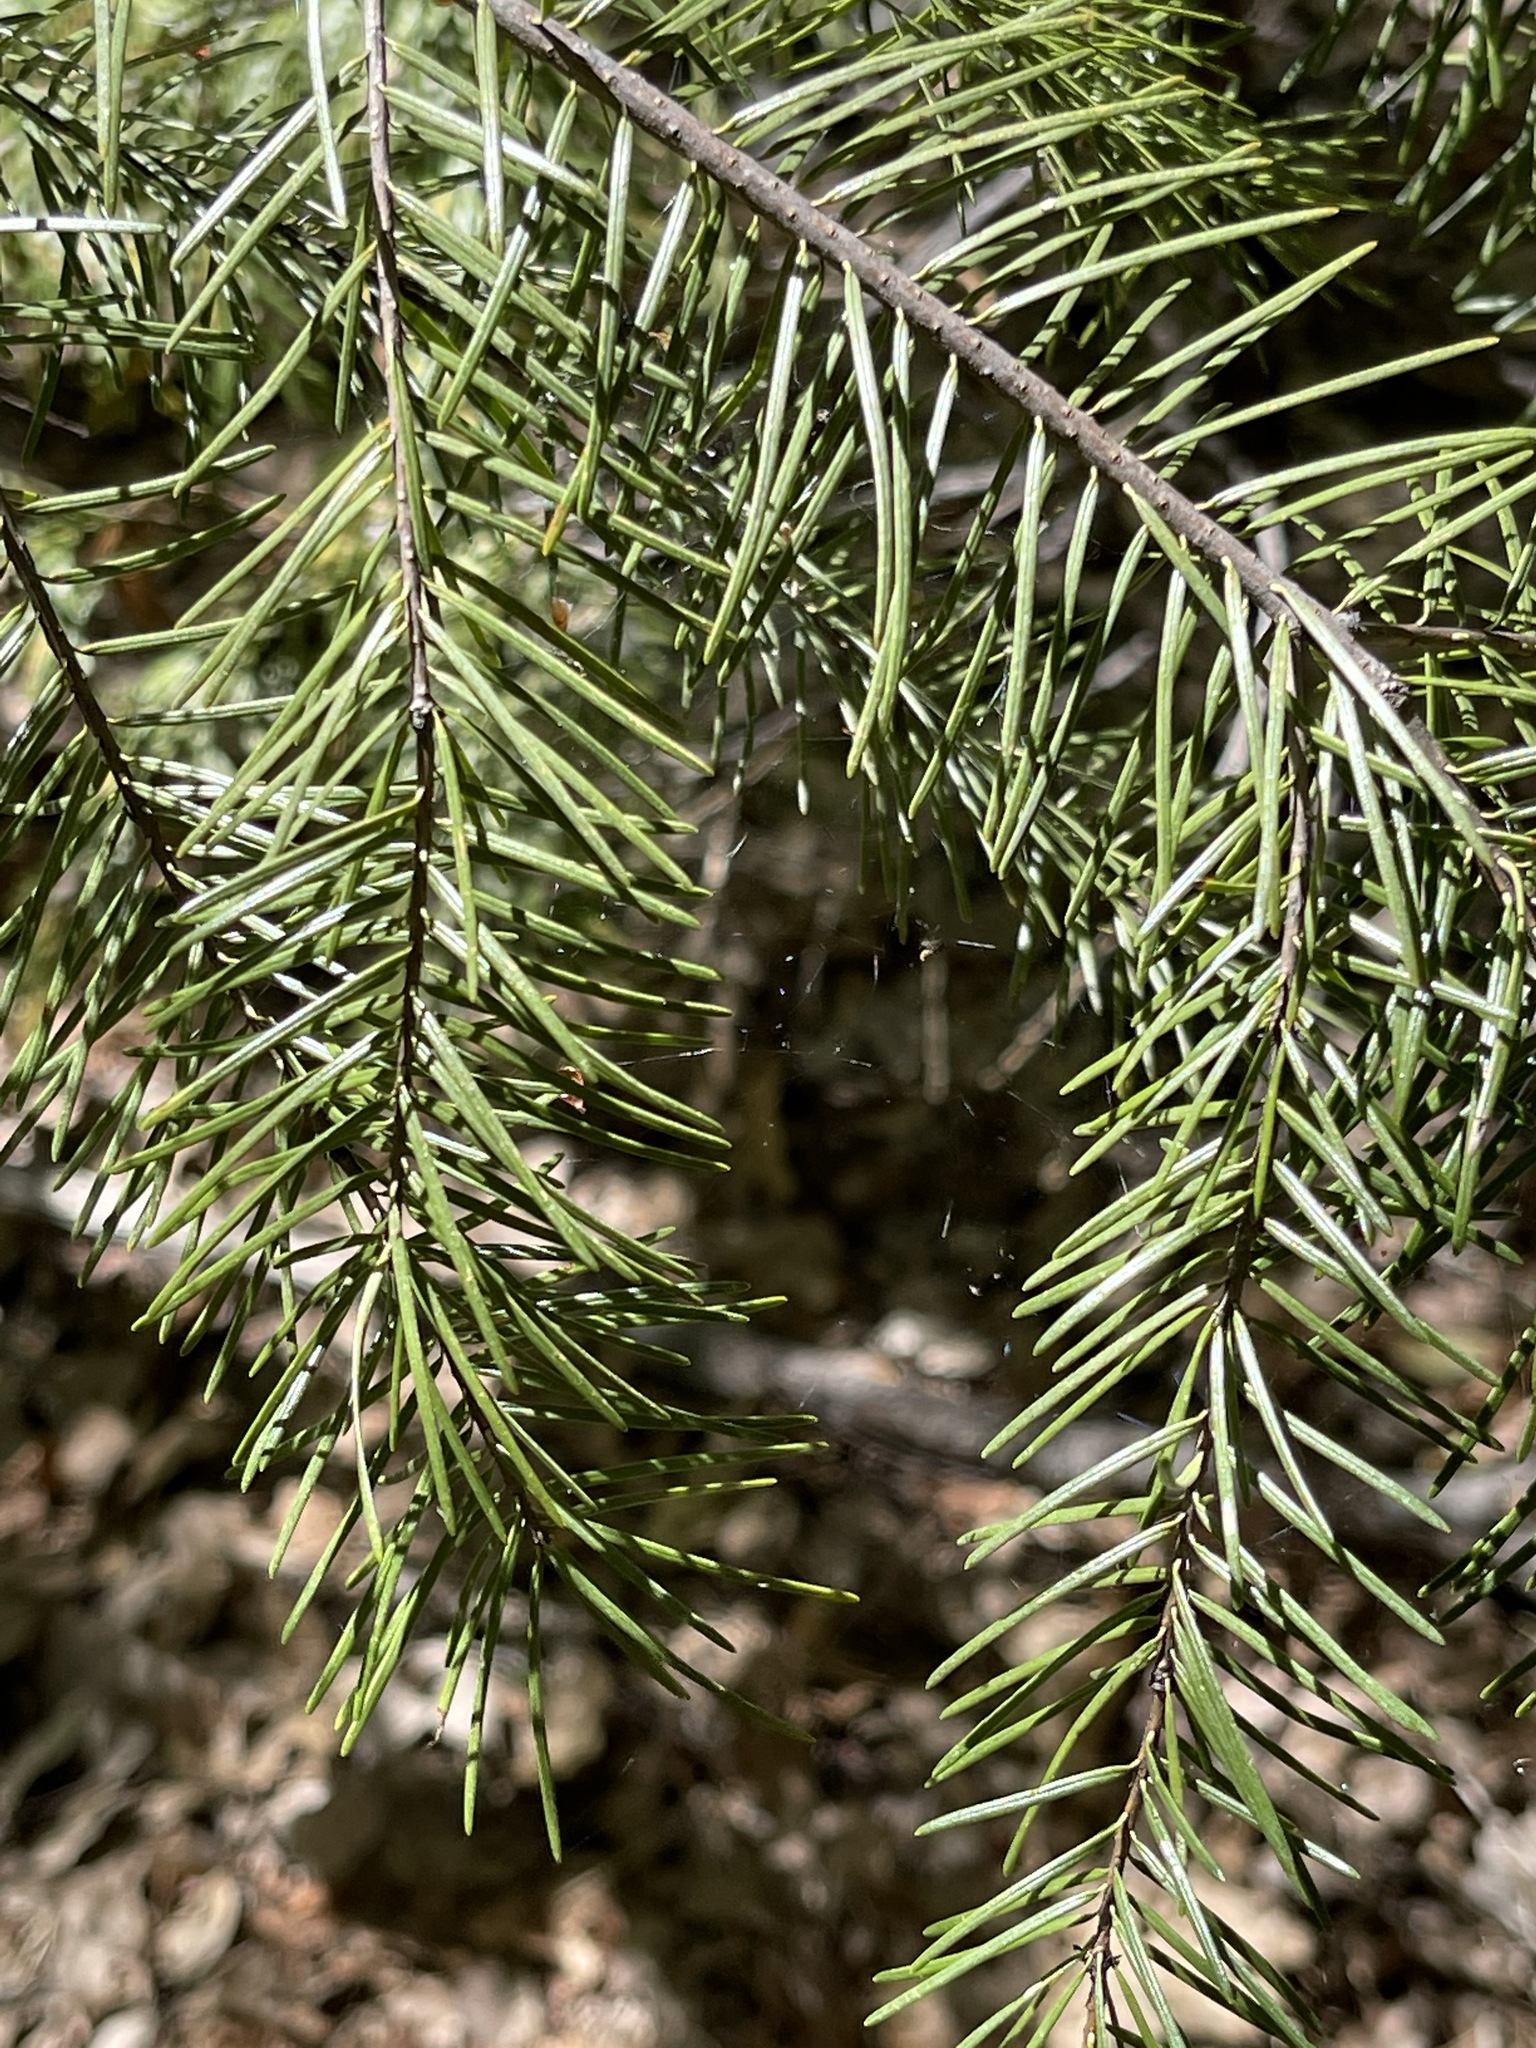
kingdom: Plantae
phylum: Tracheophyta
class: Pinopsida
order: Pinales
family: Pinaceae
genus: Pseudotsuga
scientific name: Pseudotsuga menziesii
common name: Douglas fir
